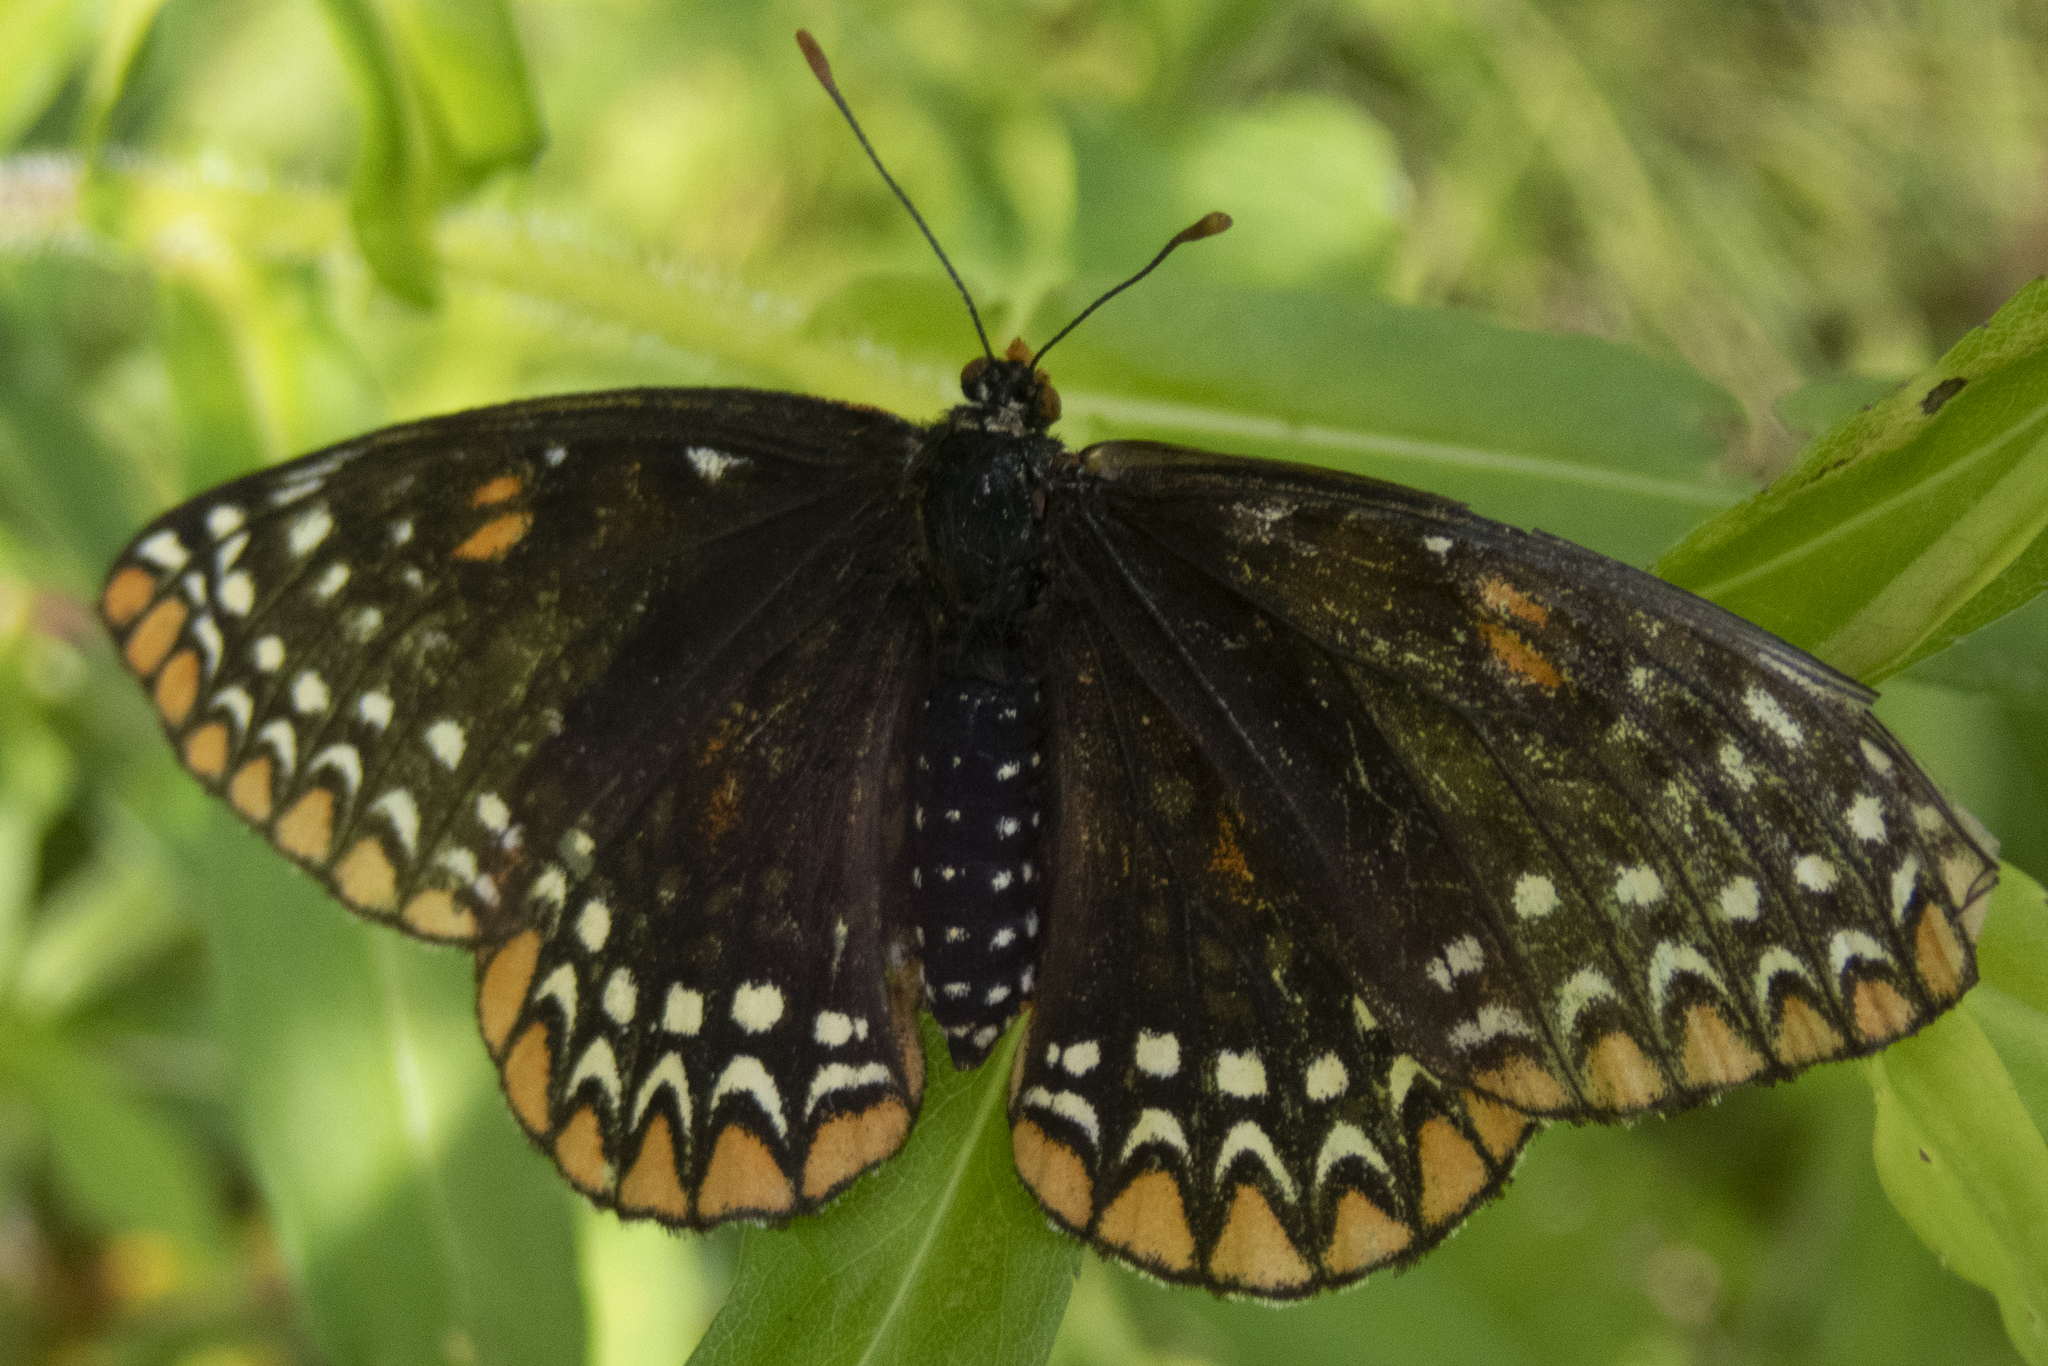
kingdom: Animalia
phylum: Arthropoda
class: Insecta
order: Lepidoptera
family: Nymphalidae
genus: Euphydryas
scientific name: Euphydryas phaeton
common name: Baltimore checkerspot
